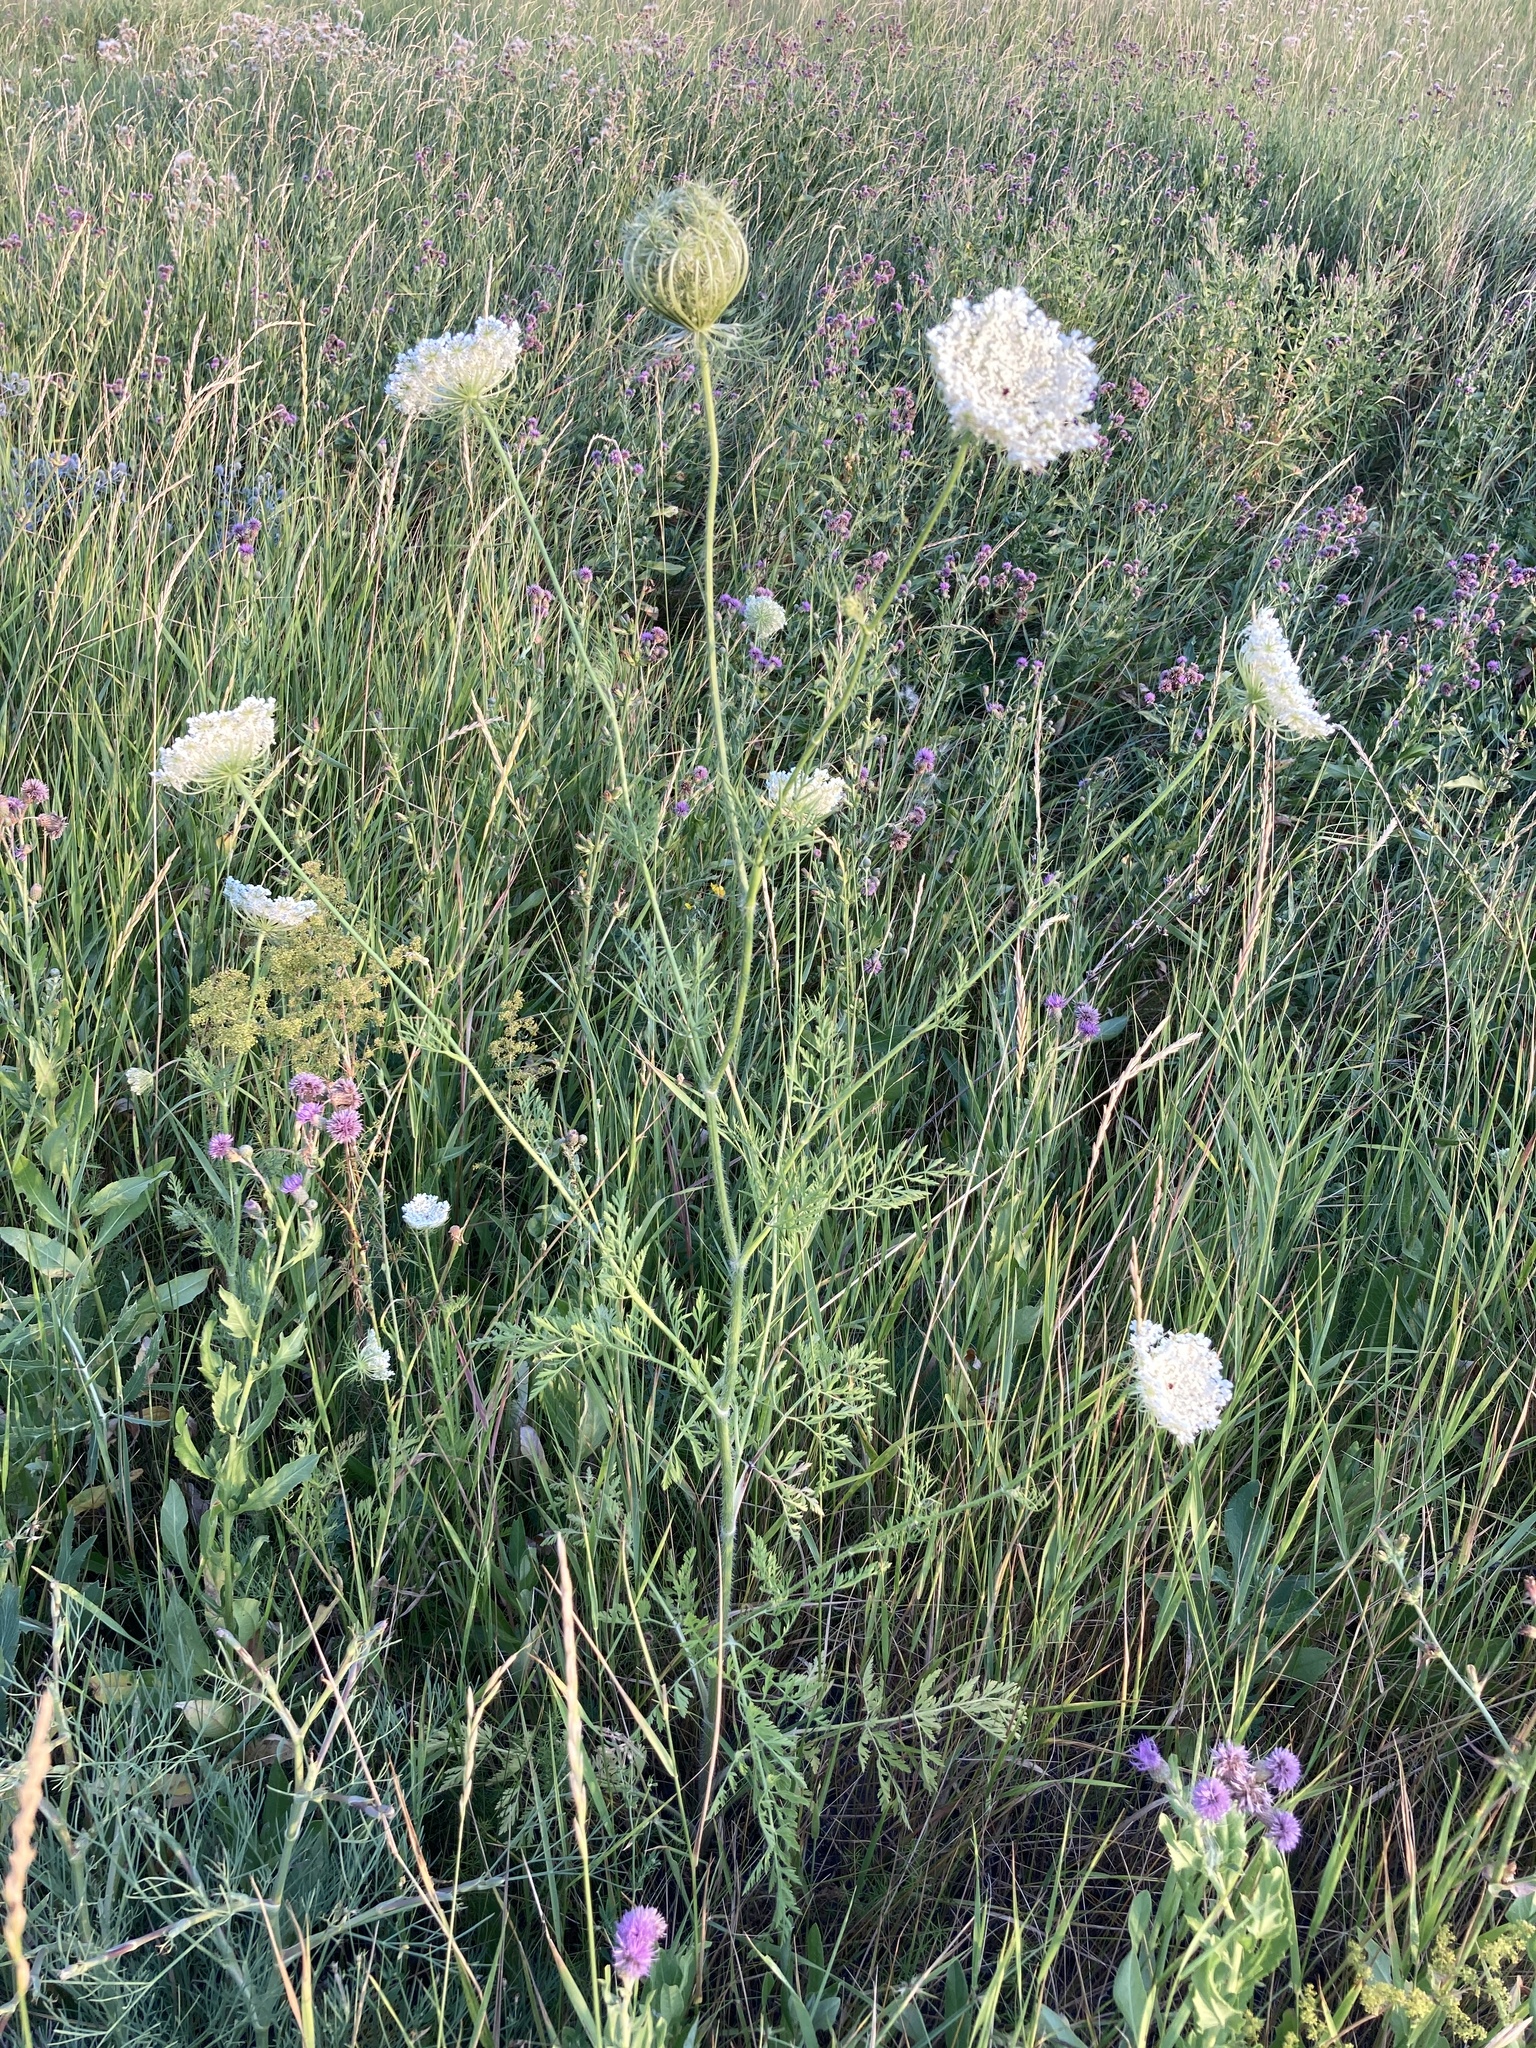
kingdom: Plantae
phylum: Tracheophyta
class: Magnoliopsida
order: Apiales
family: Apiaceae
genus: Daucus
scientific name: Daucus carota
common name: Wild carrot
